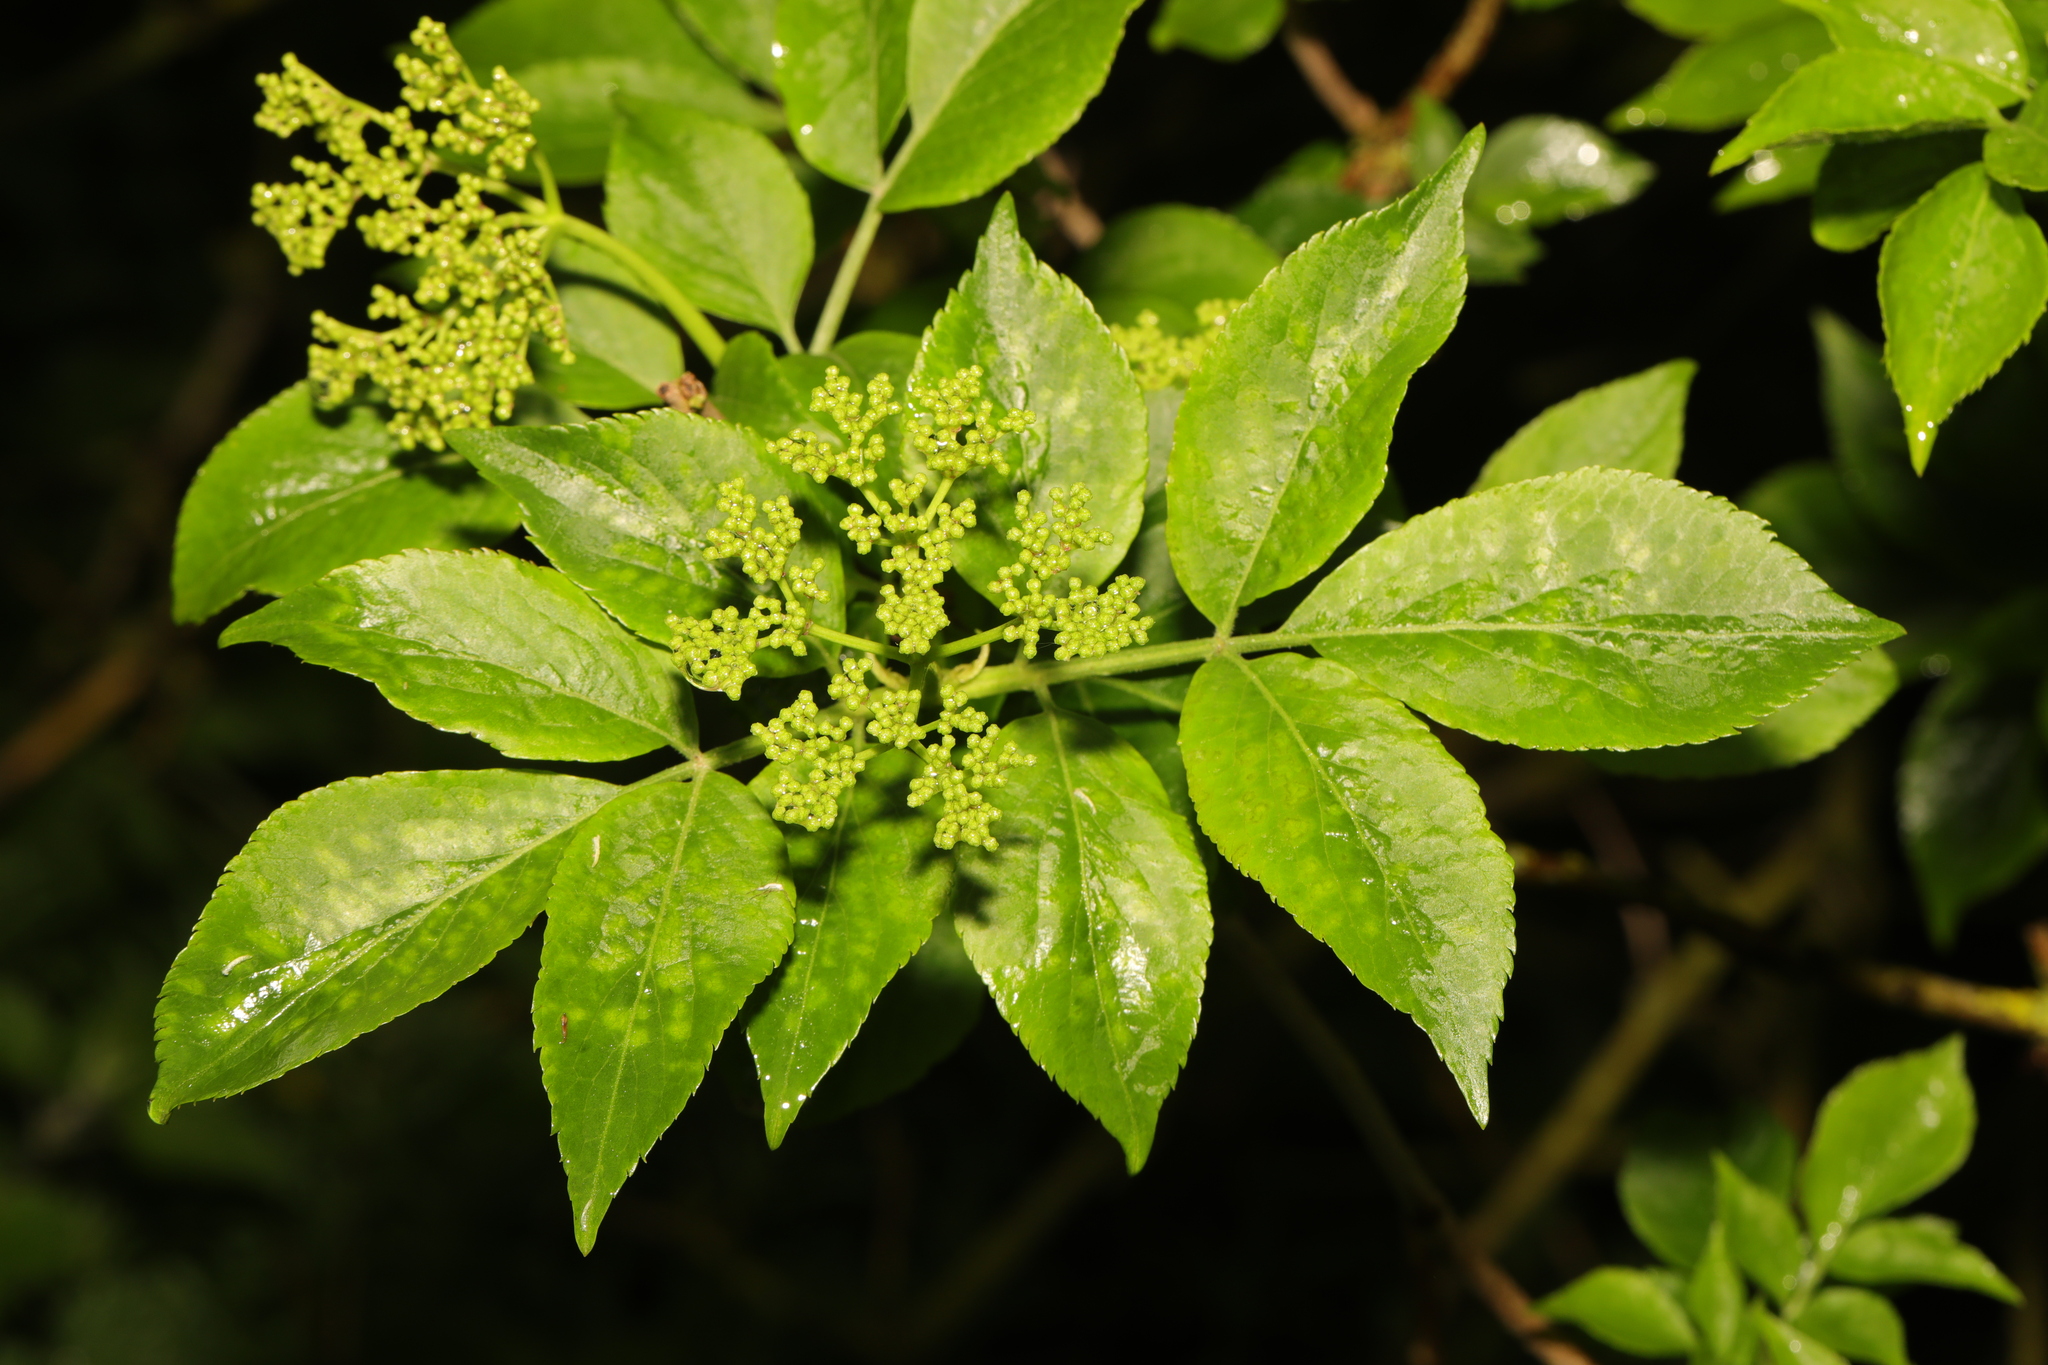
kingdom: Plantae
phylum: Tracheophyta
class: Magnoliopsida
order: Dipsacales
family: Viburnaceae
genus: Sambucus
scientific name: Sambucus nigra
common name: Elder
